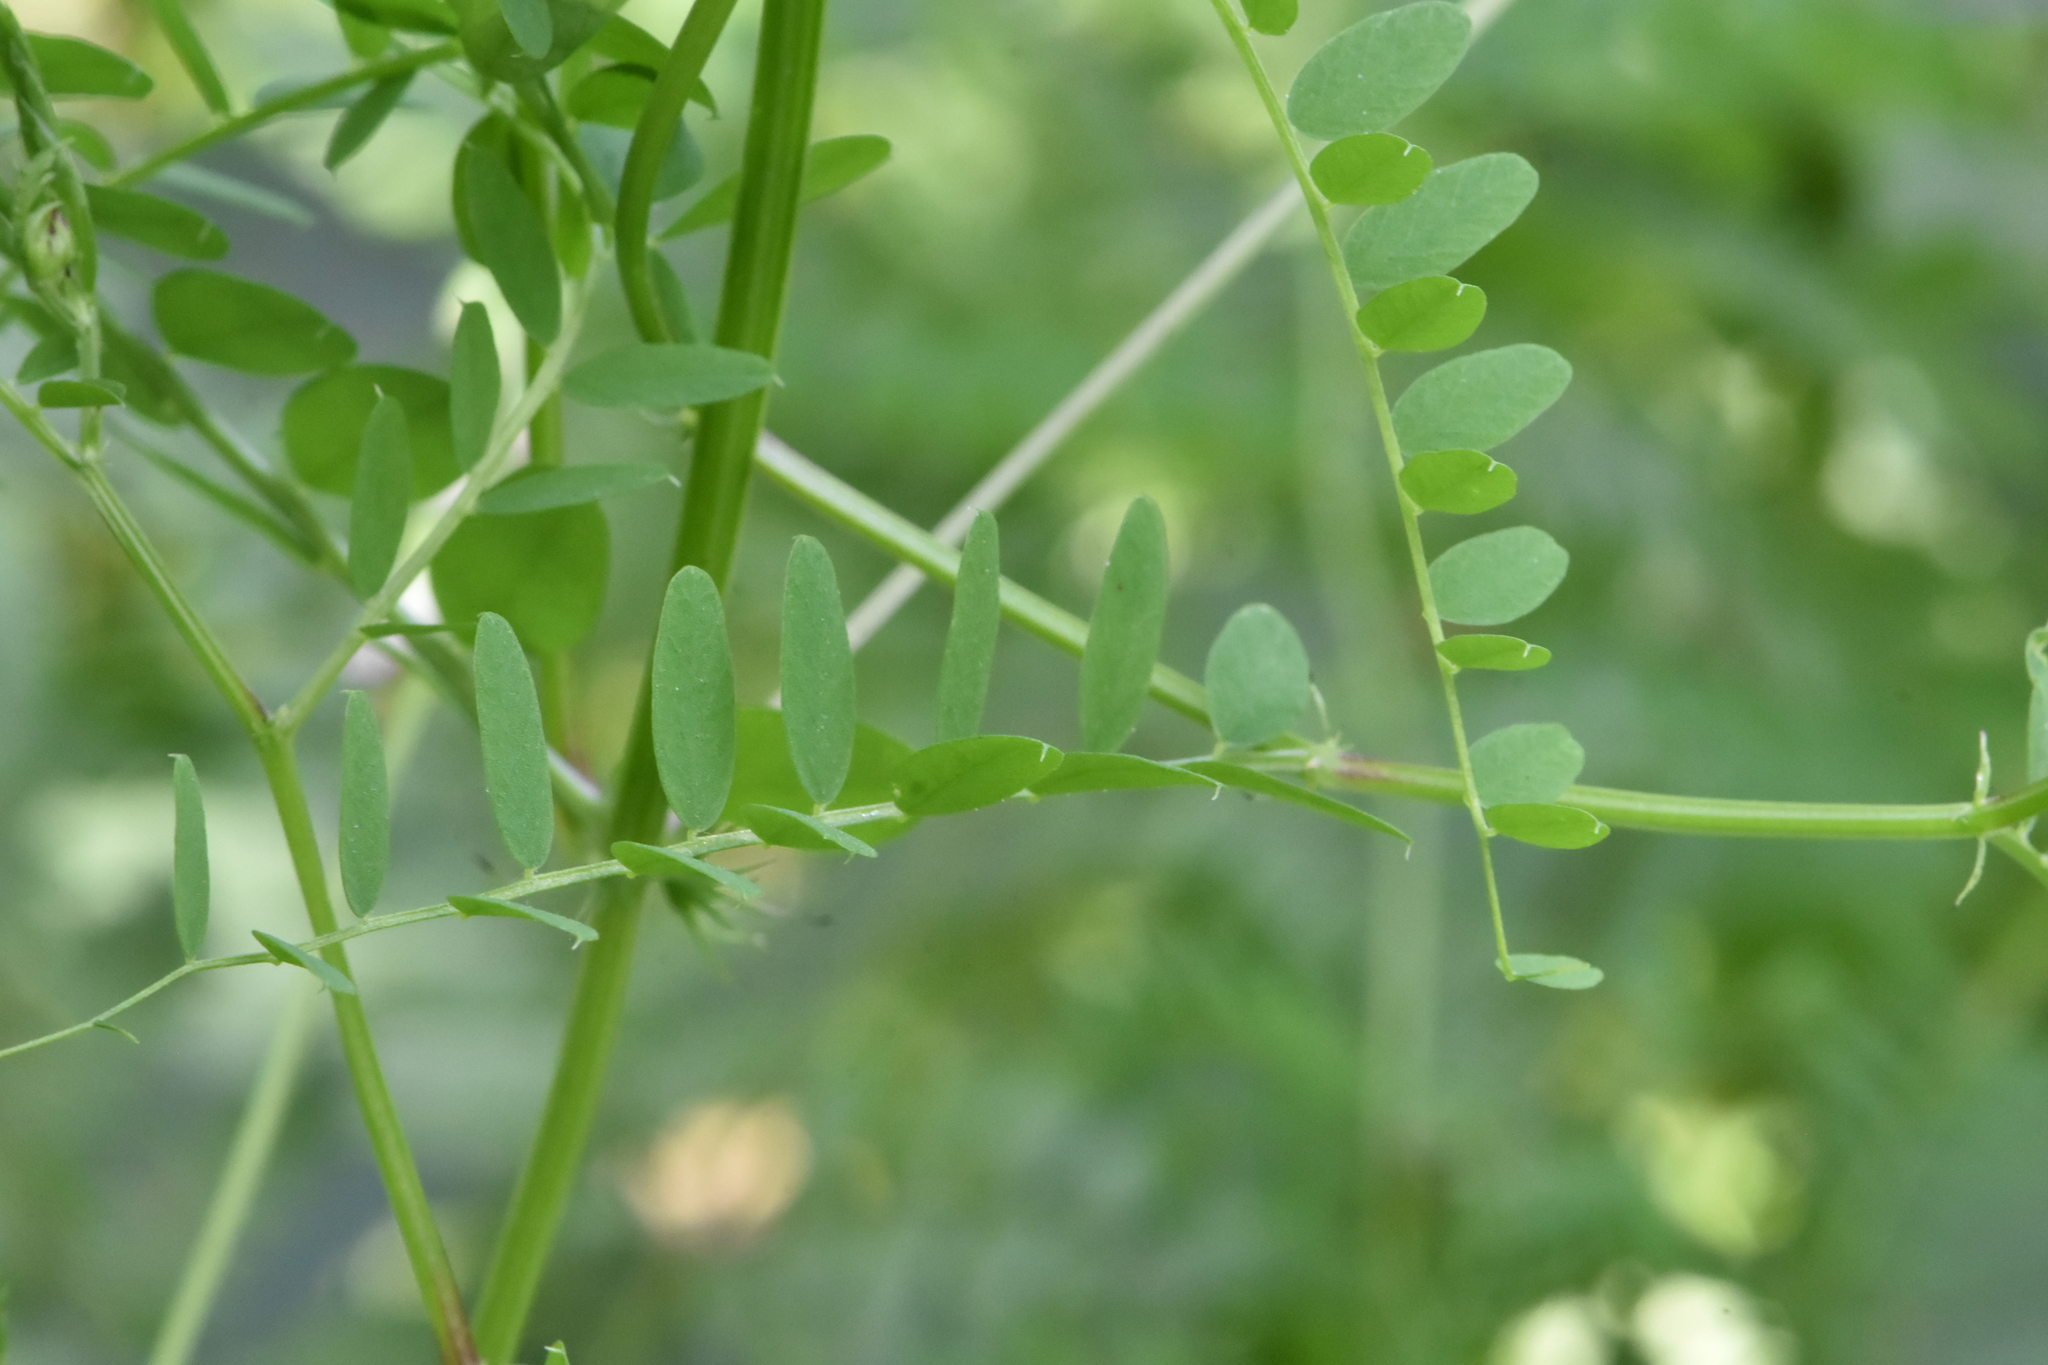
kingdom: Plantae
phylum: Tracheophyta
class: Magnoliopsida
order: Fabales
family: Fabaceae
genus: Vicia
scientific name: Vicia sylvatica
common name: Wood vetch
